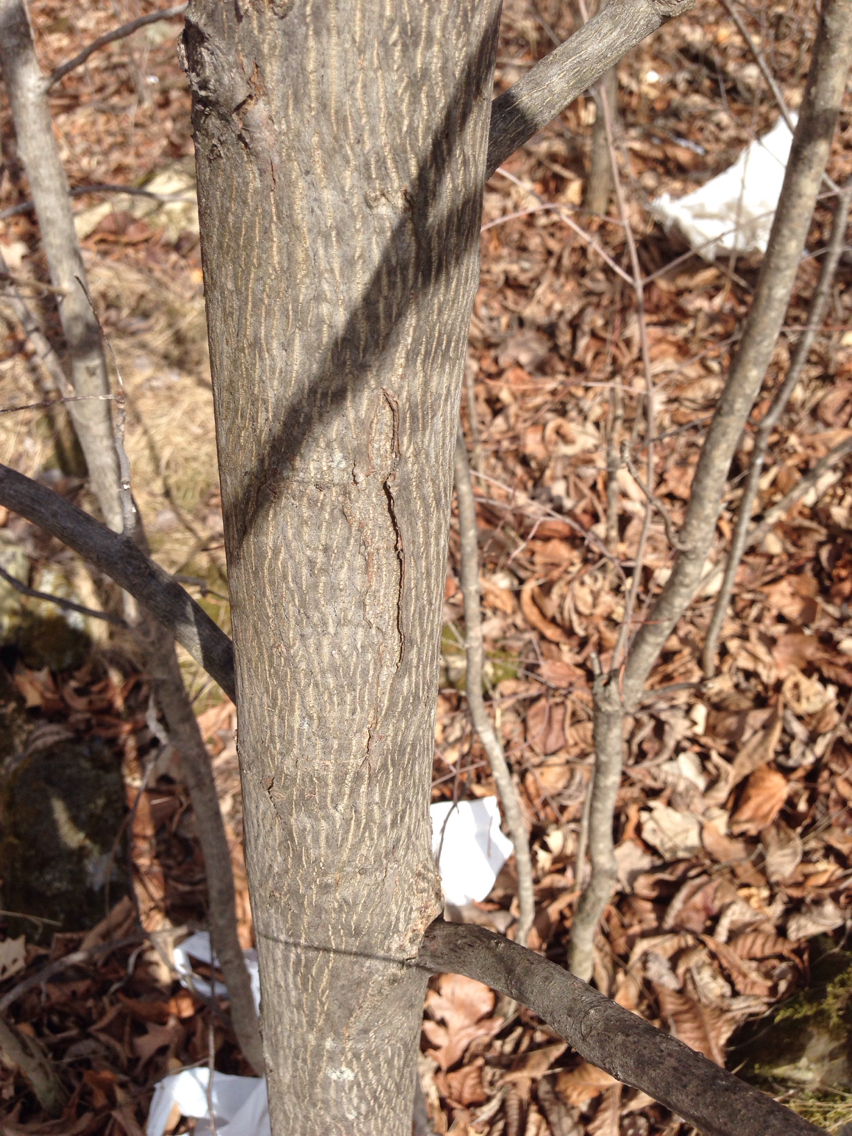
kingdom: Plantae
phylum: Tracheophyta
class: Magnoliopsida
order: Fagales
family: Juglandaceae
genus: Carya
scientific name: Carya ovata
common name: Shagbark hickory
